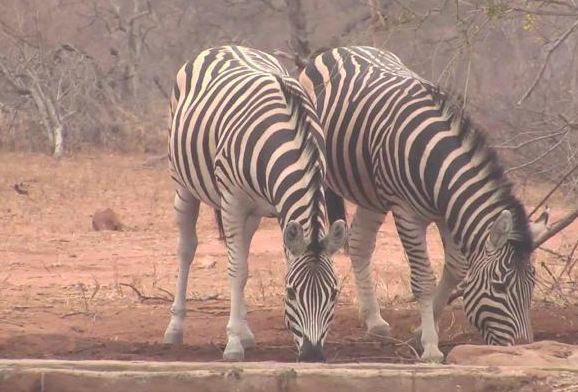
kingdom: Animalia
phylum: Chordata
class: Mammalia
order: Perissodactyla
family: Equidae
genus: Equus
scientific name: Equus quagga
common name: Plains zebra
